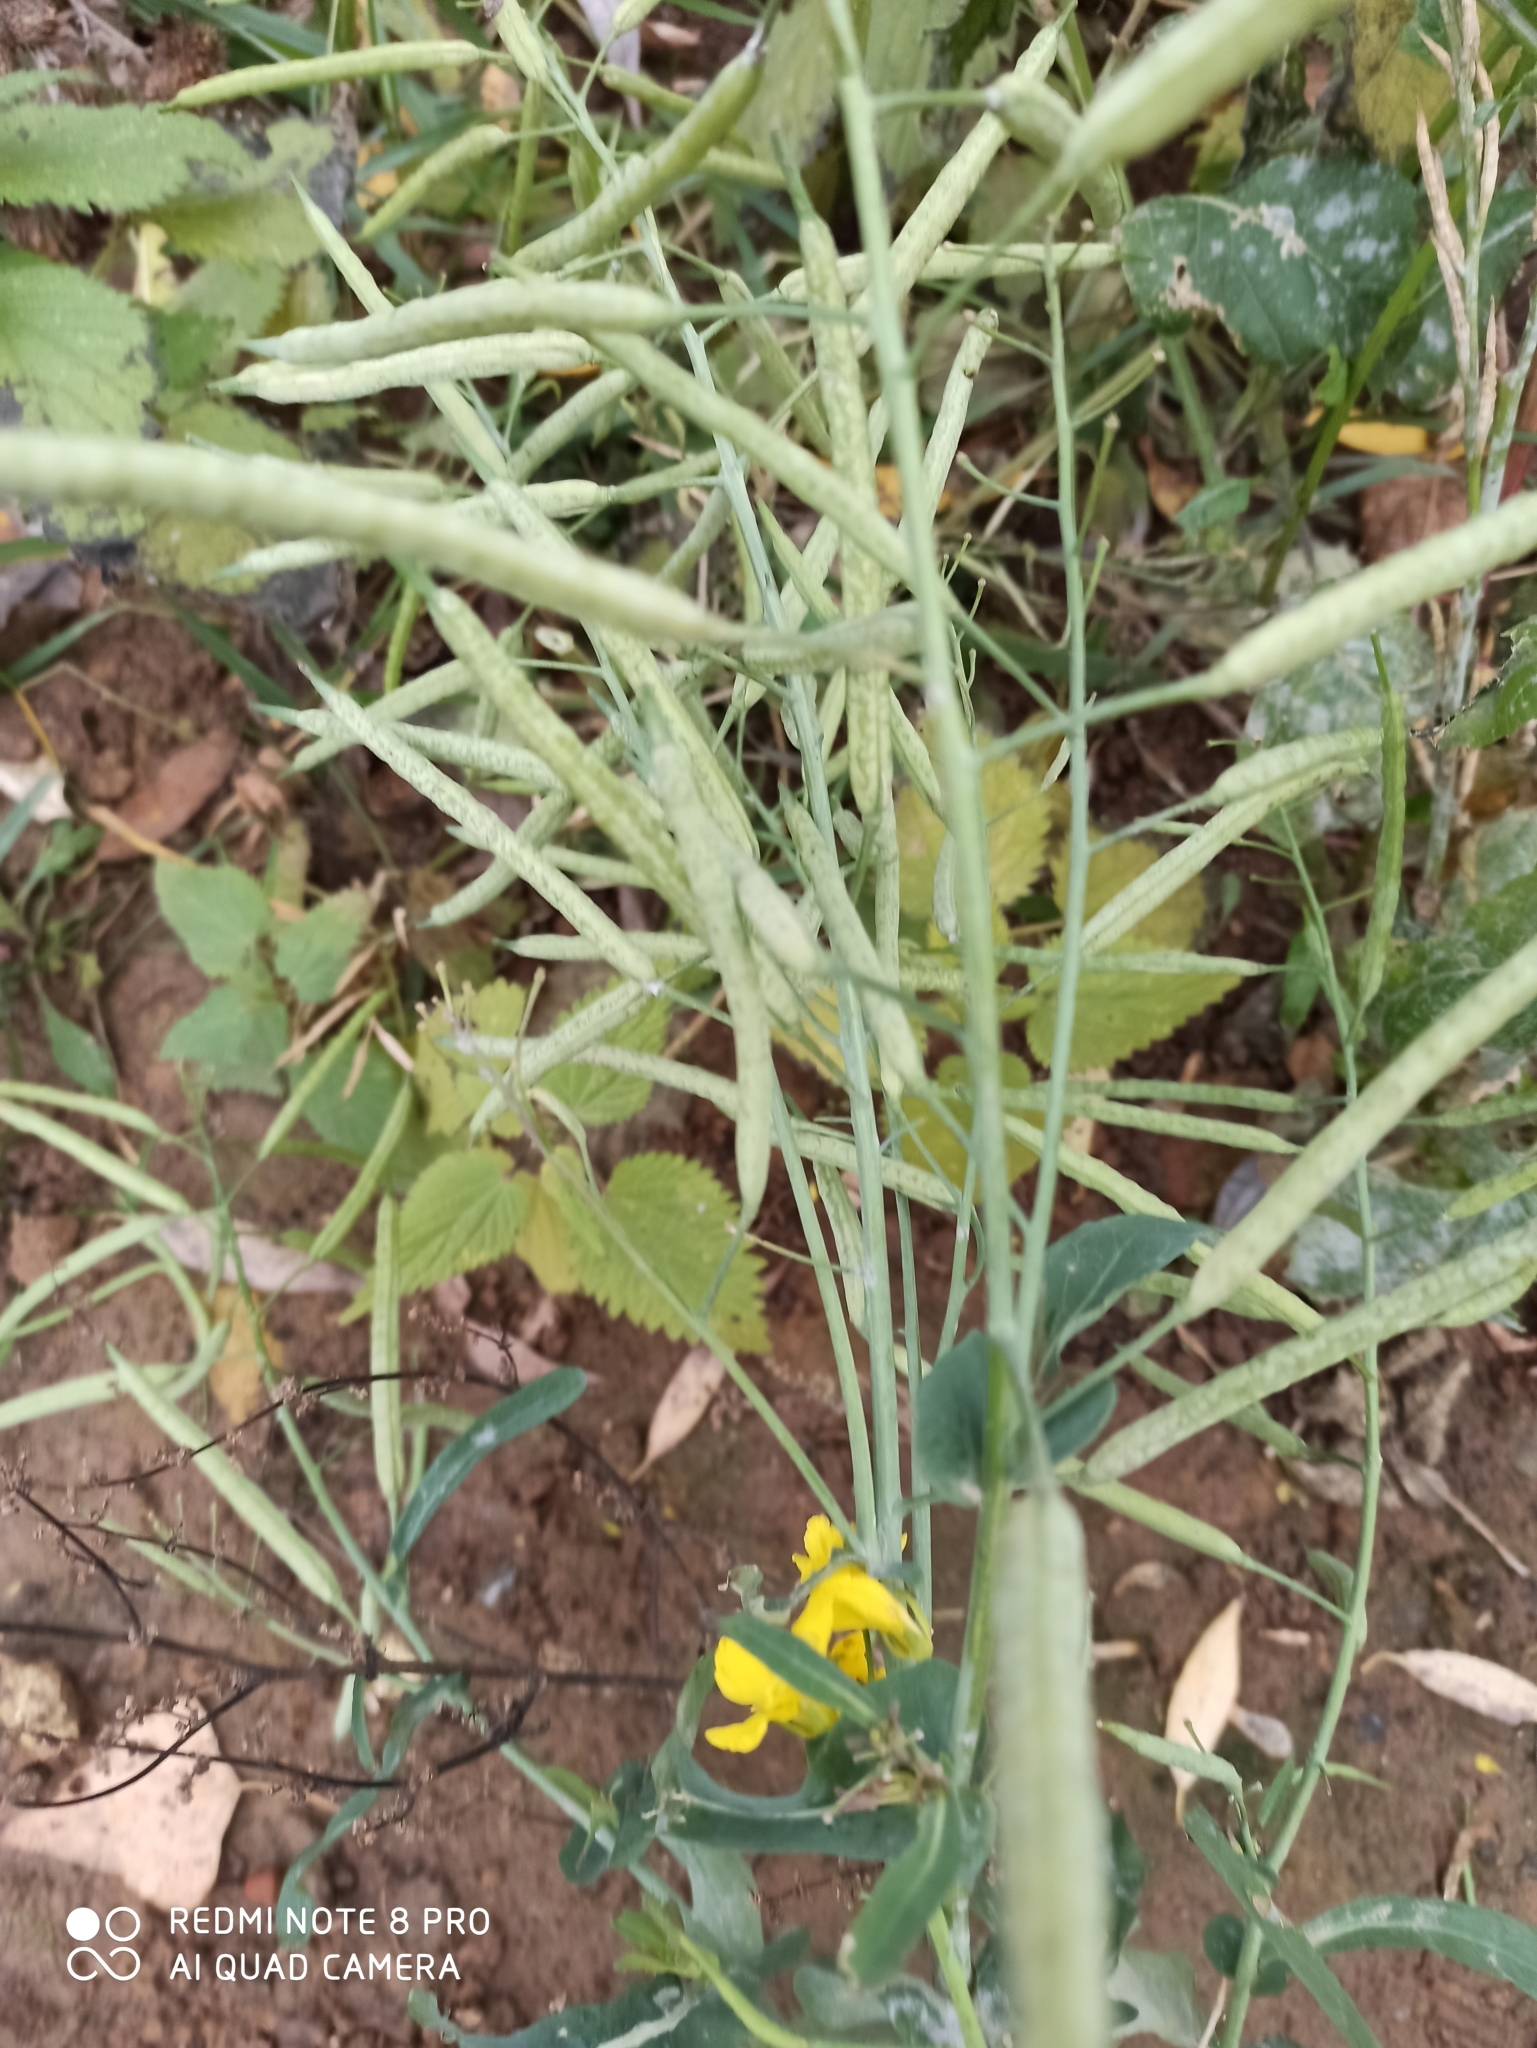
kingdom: Plantae
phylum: Tracheophyta
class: Magnoliopsida
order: Brassicales
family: Brassicaceae
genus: Brassica
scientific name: Brassica rapa
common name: Field mustard
